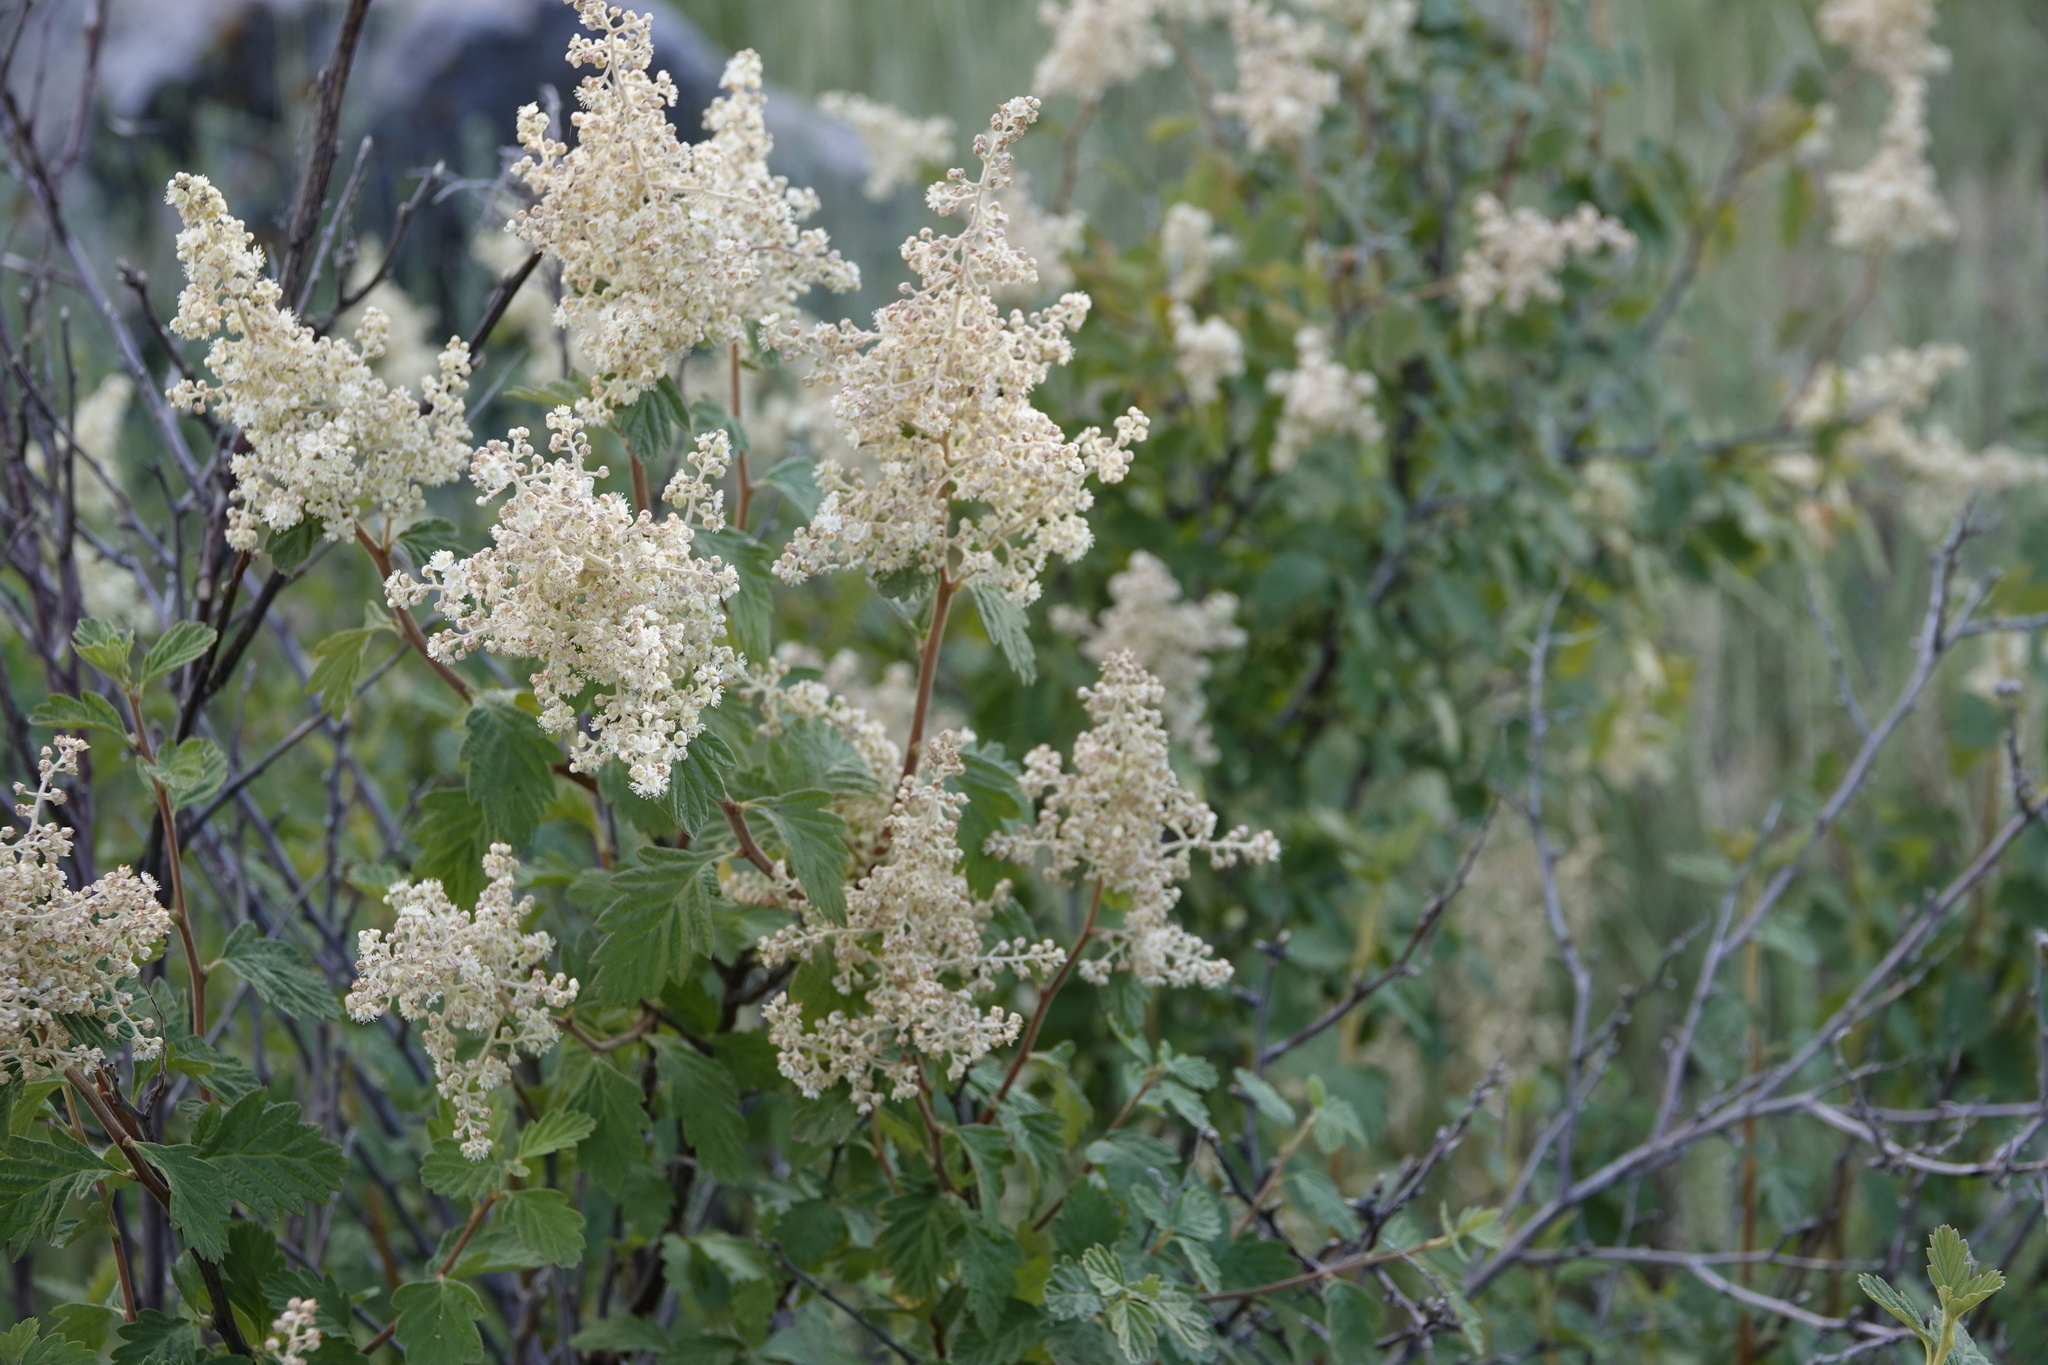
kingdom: Plantae
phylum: Tracheophyta
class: Magnoliopsida
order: Rosales
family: Rosaceae
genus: Holodiscus
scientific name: Holodiscus discolor
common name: Oceanspray
